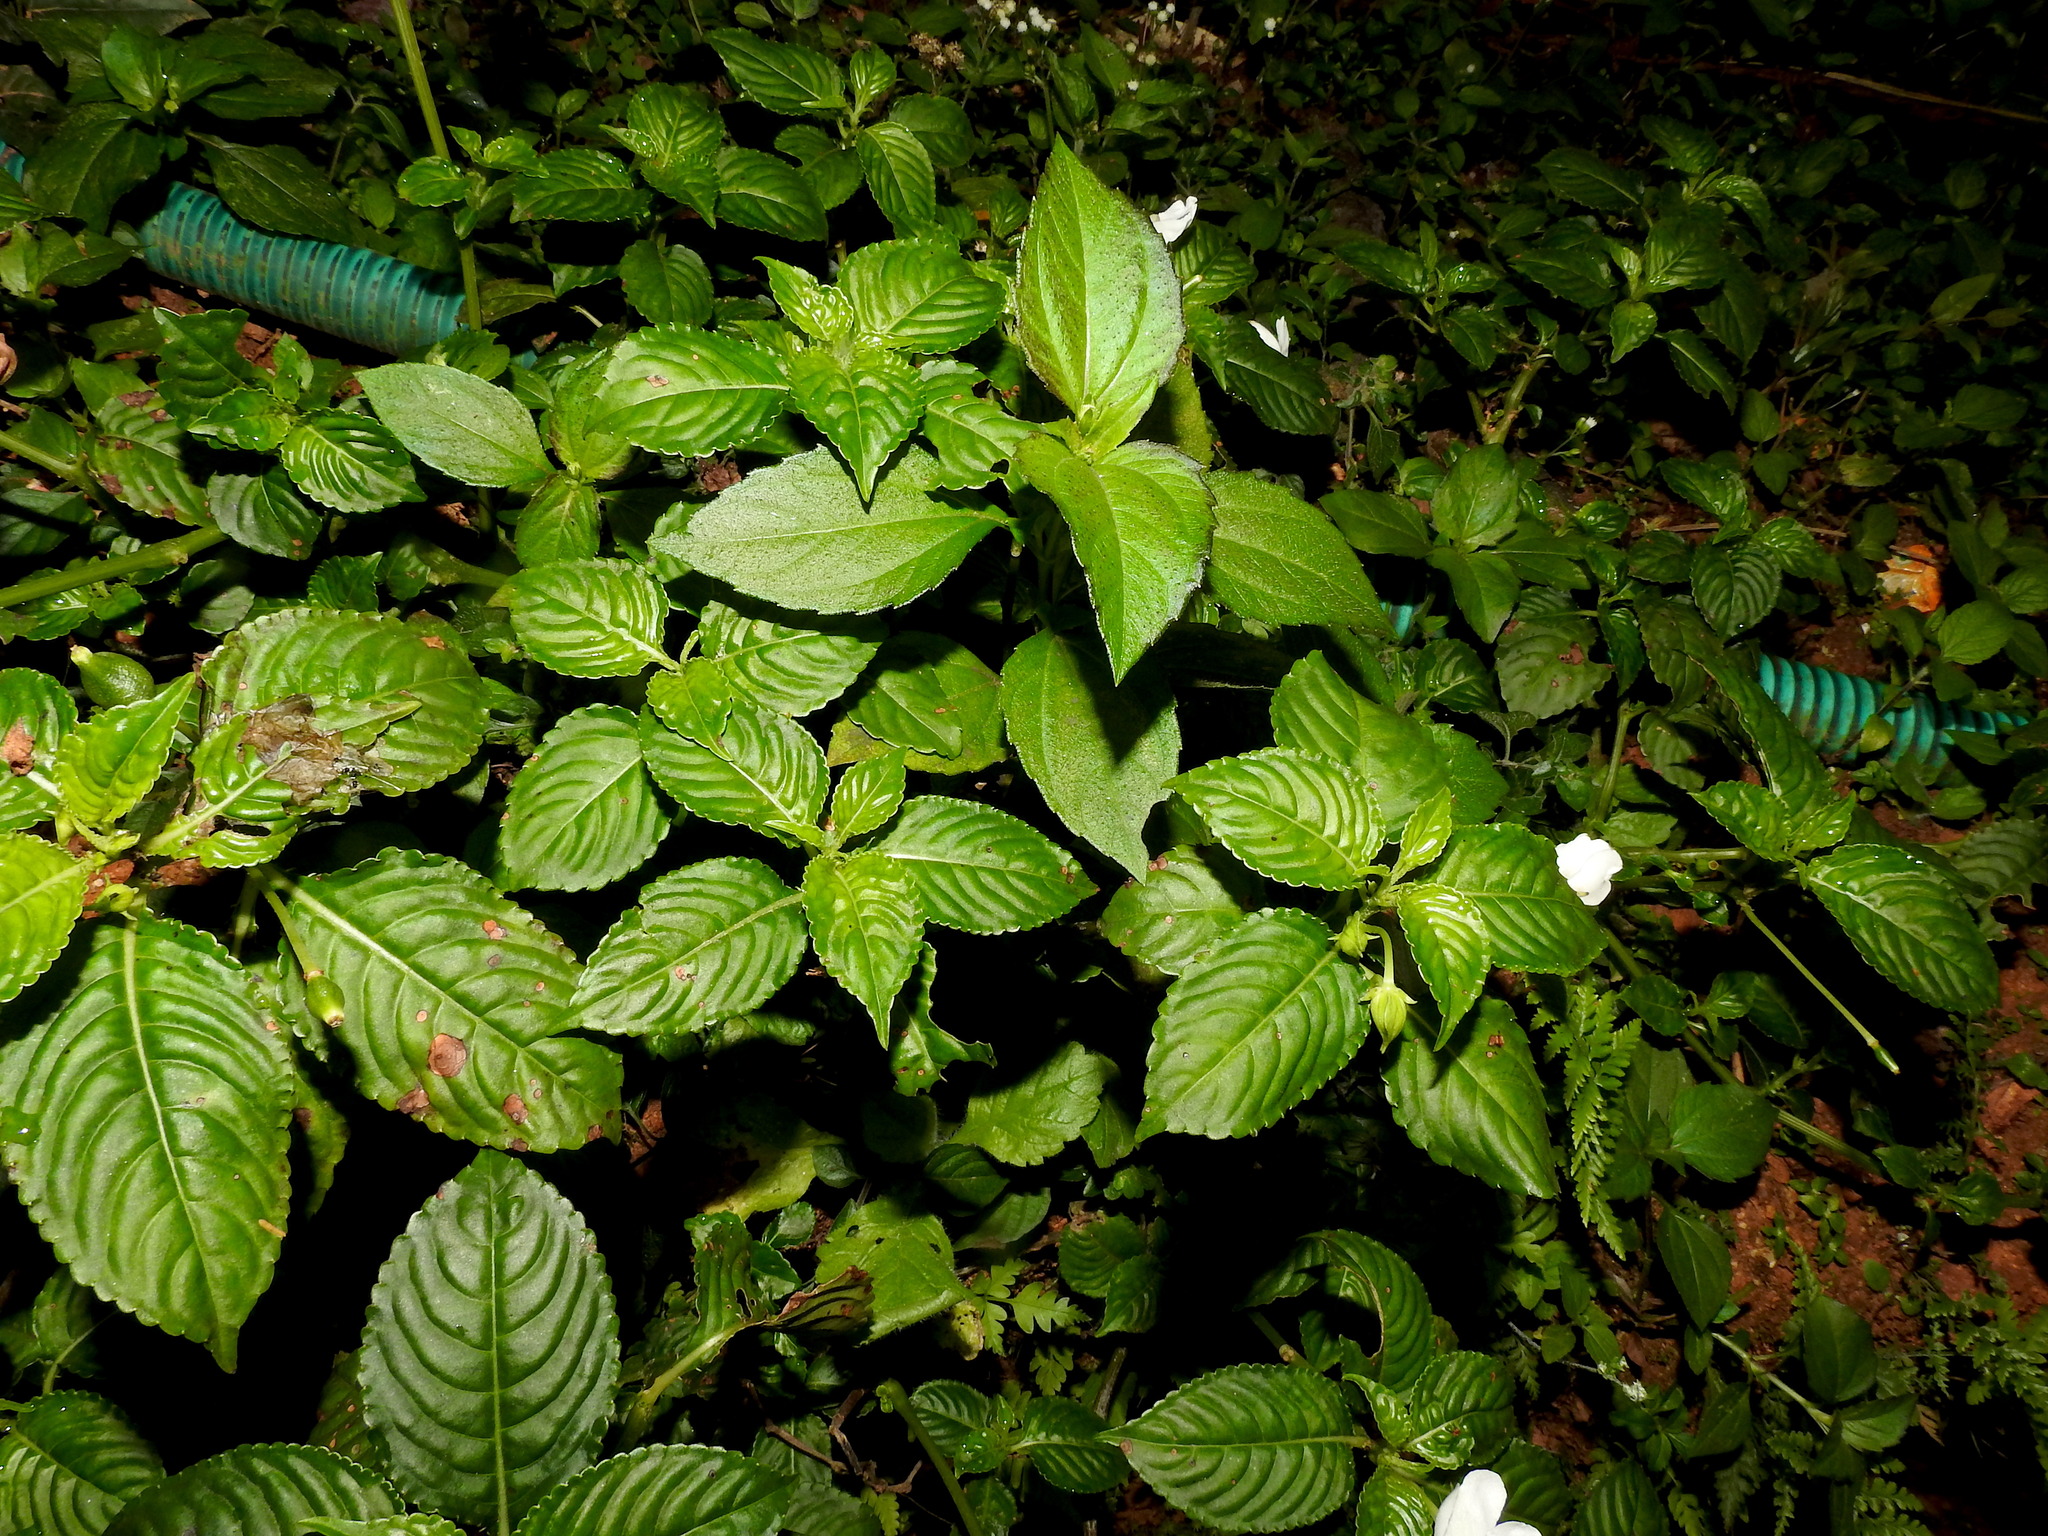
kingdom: Plantae
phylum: Tracheophyta
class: Magnoliopsida
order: Ericales
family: Balsaminaceae
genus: Impatiens
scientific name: Impatiens flaccida
